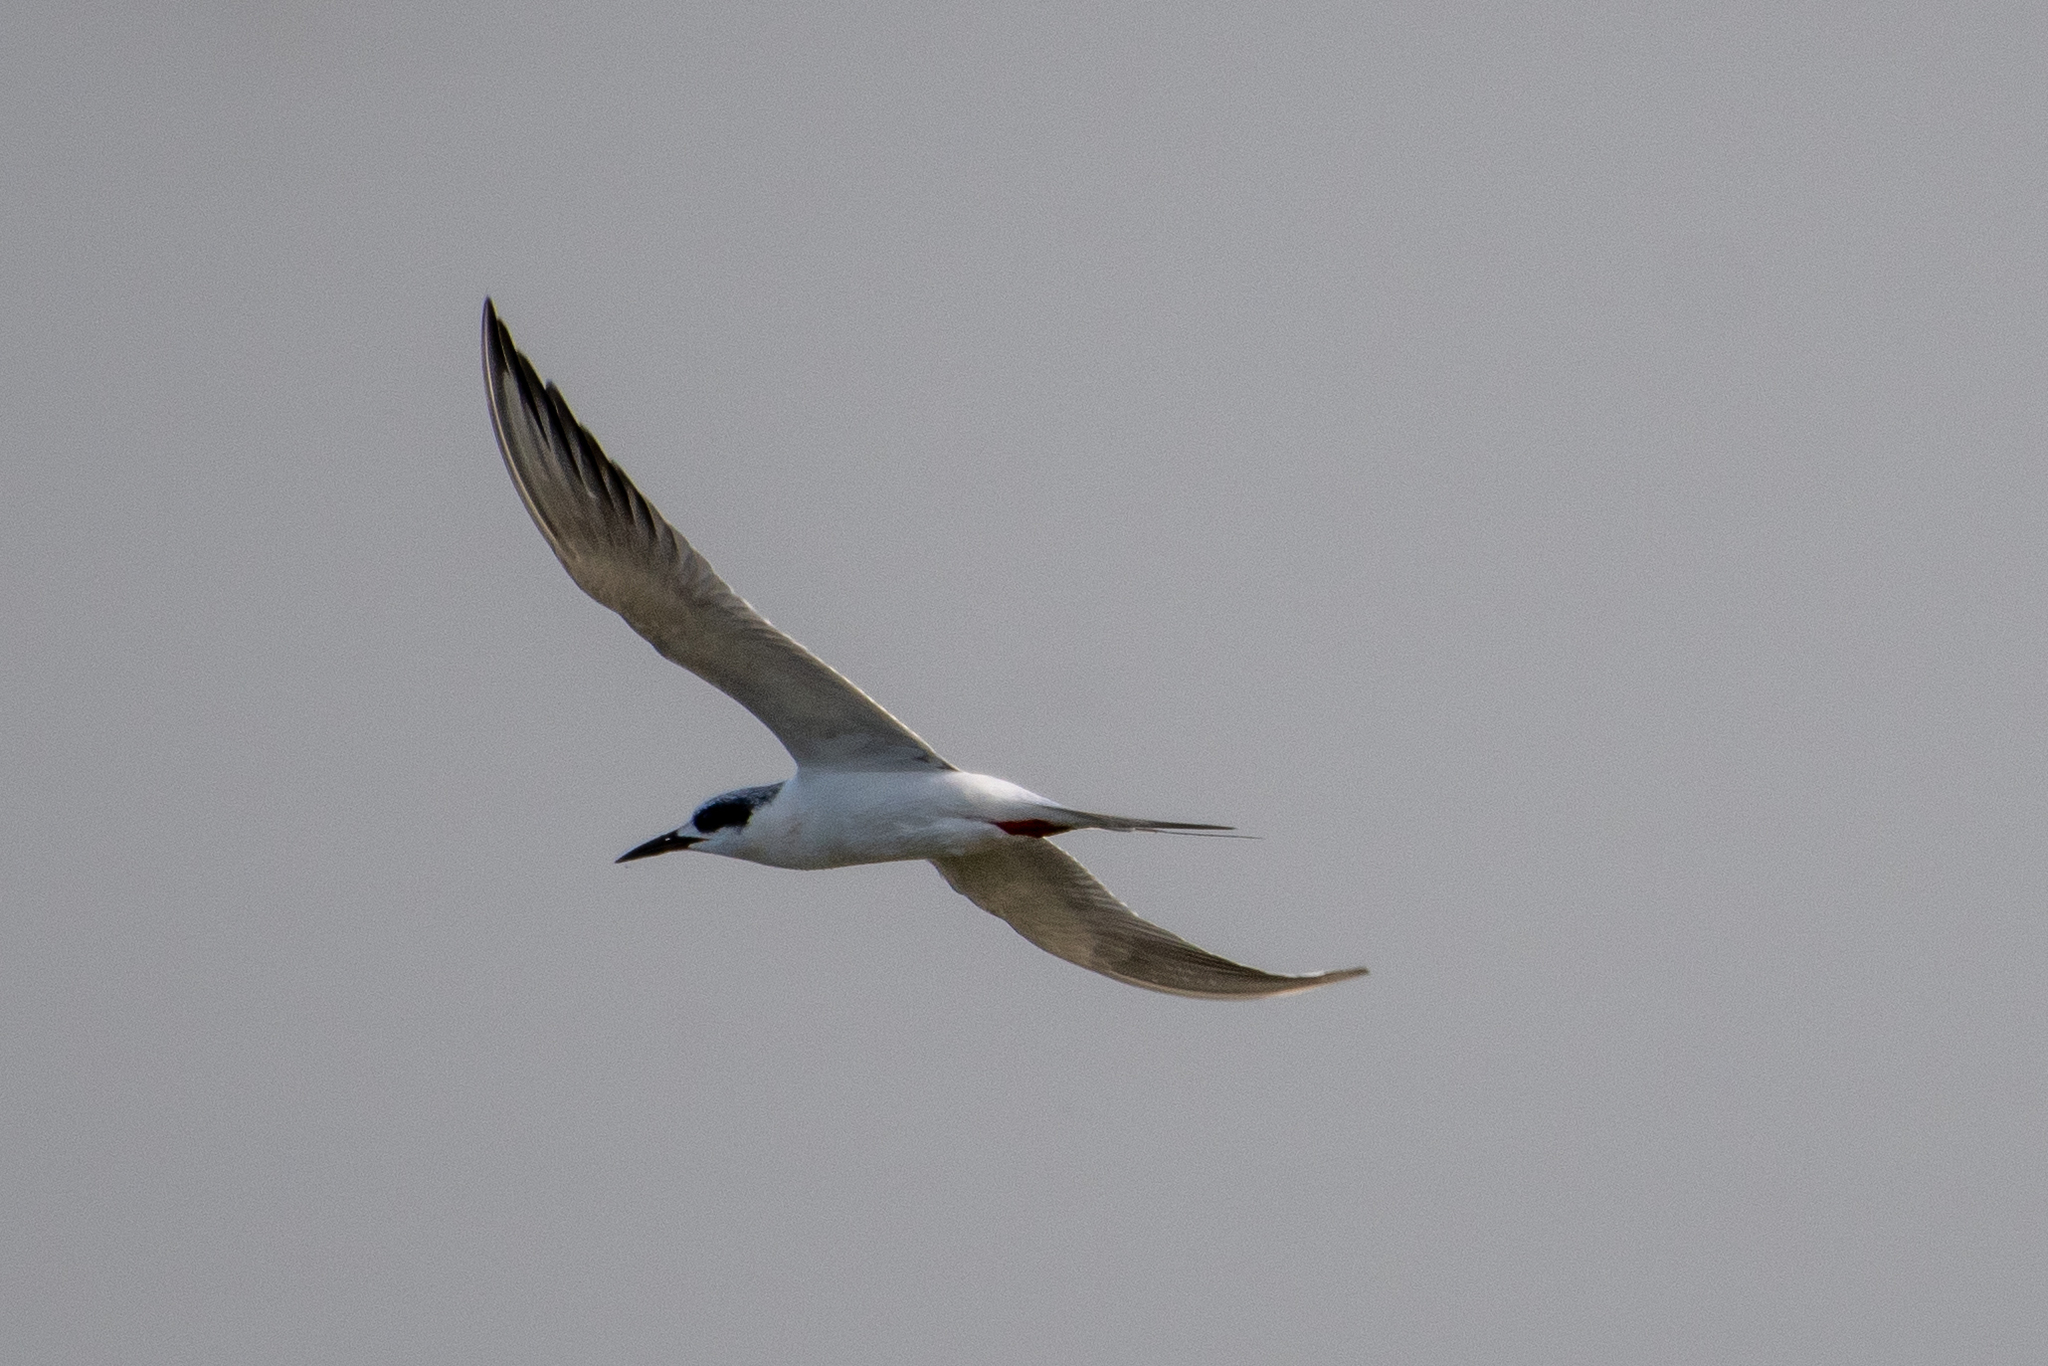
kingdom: Animalia
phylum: Chordata
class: Aves
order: Charadriiformes
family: Laridae
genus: Sterna
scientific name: Sterna forsteri
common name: Forster's tern
